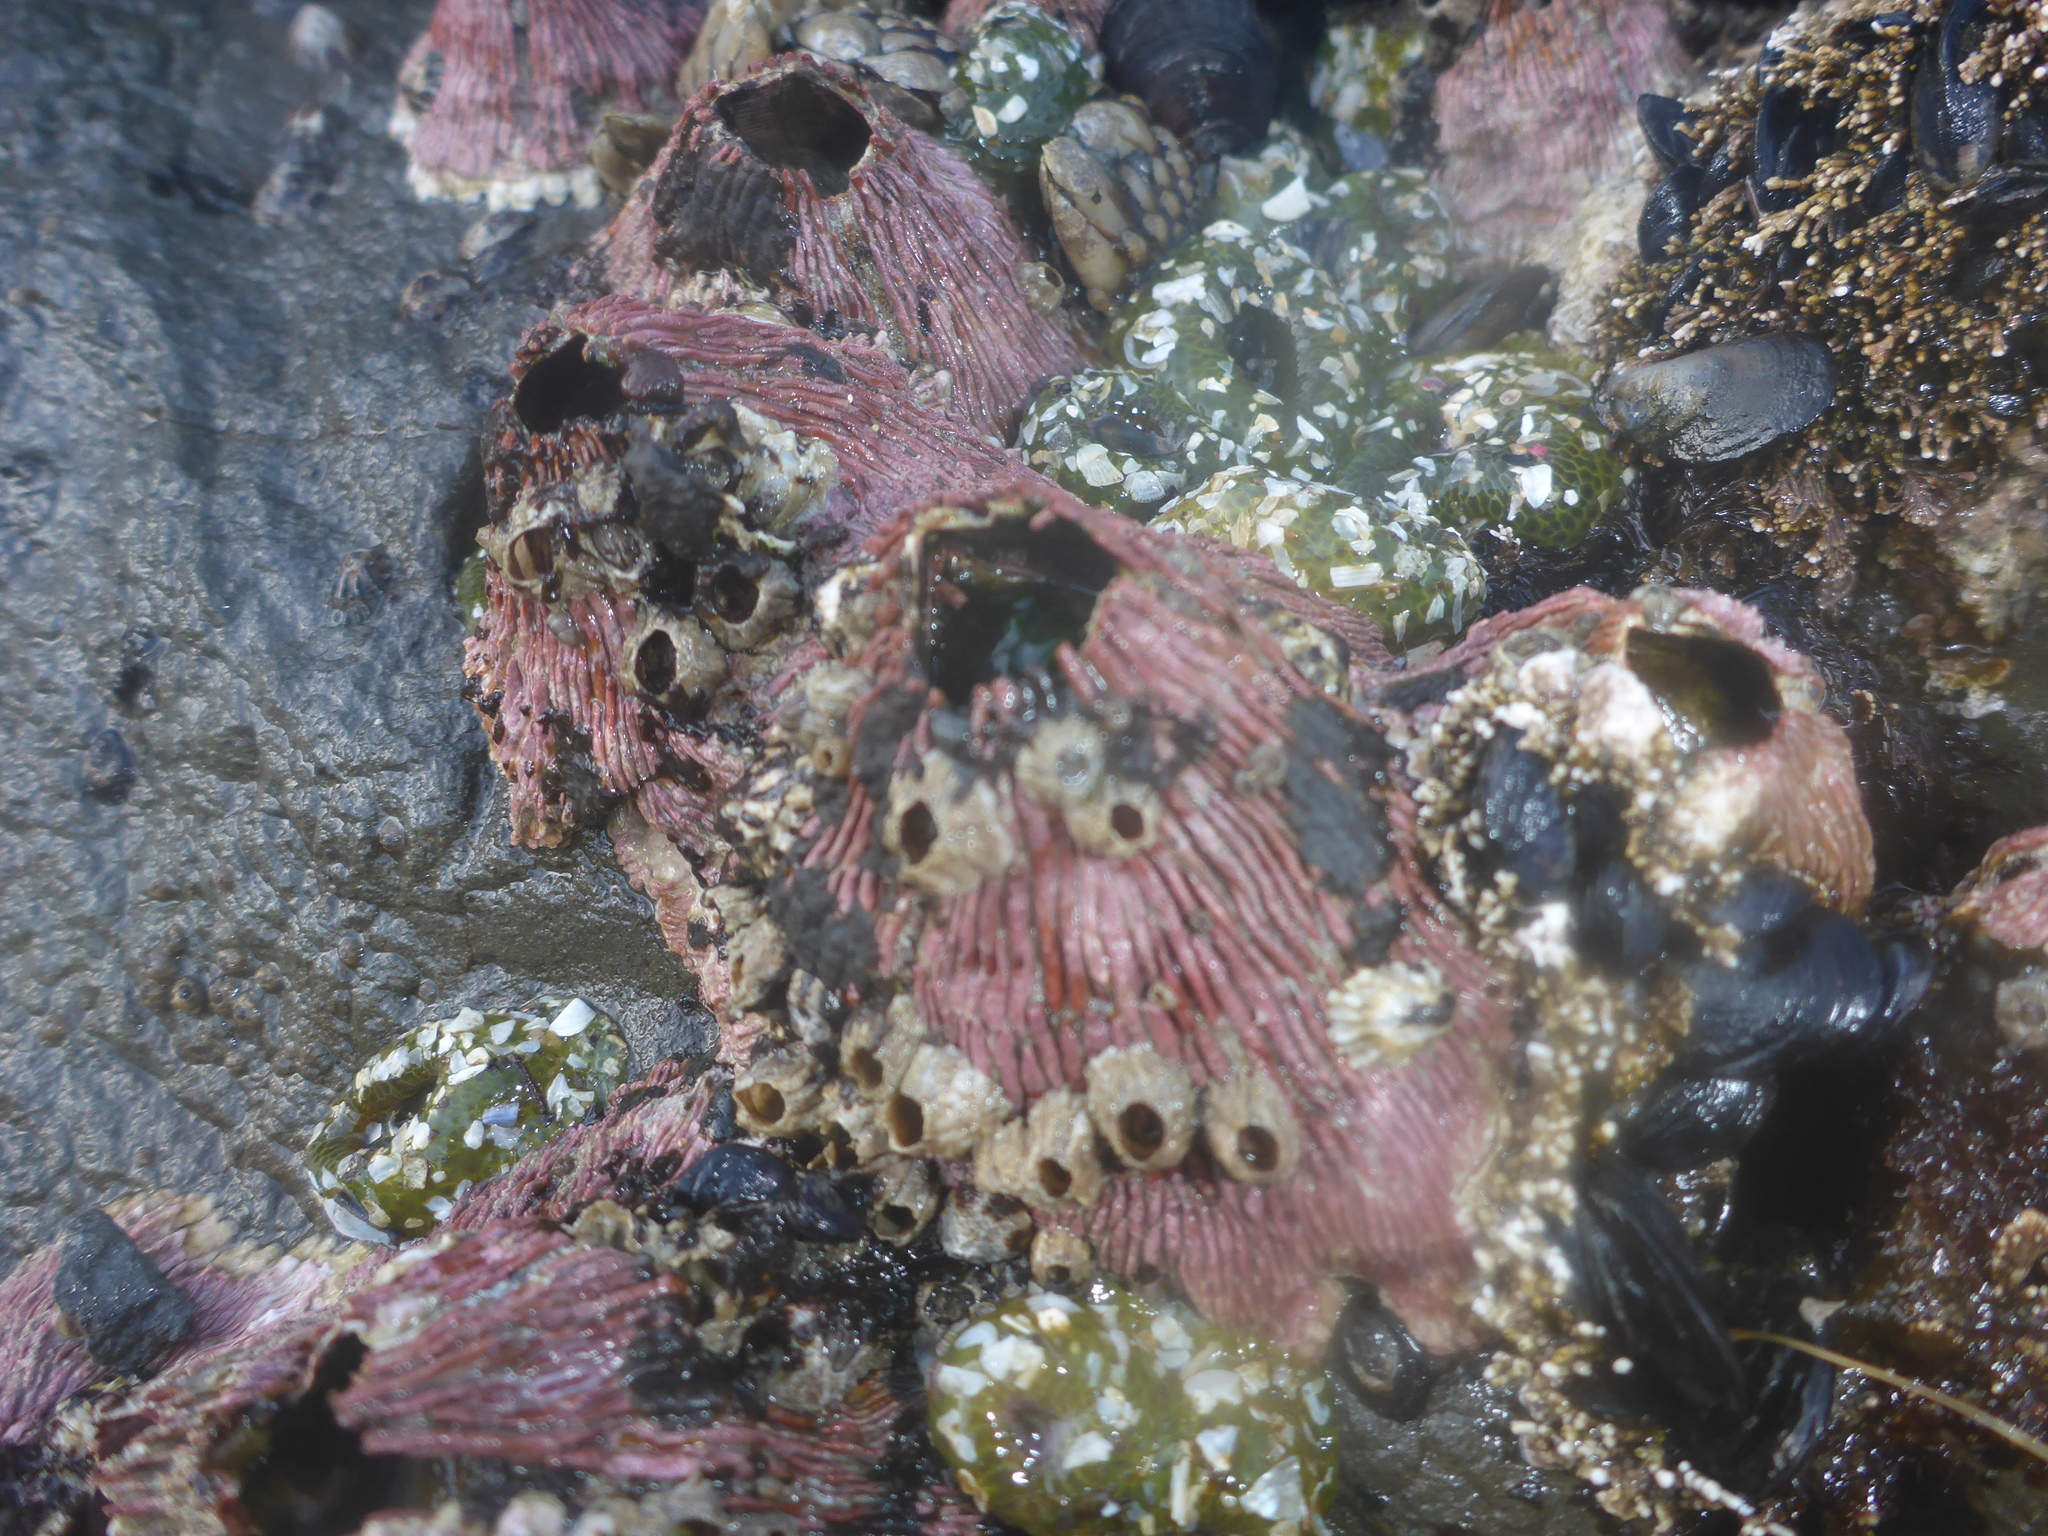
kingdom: Animalia
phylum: Arthropoda
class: Maxillopoda
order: Sessilia
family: Tetraclitidae
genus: Tetraclita
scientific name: Tetraclita rubescens
